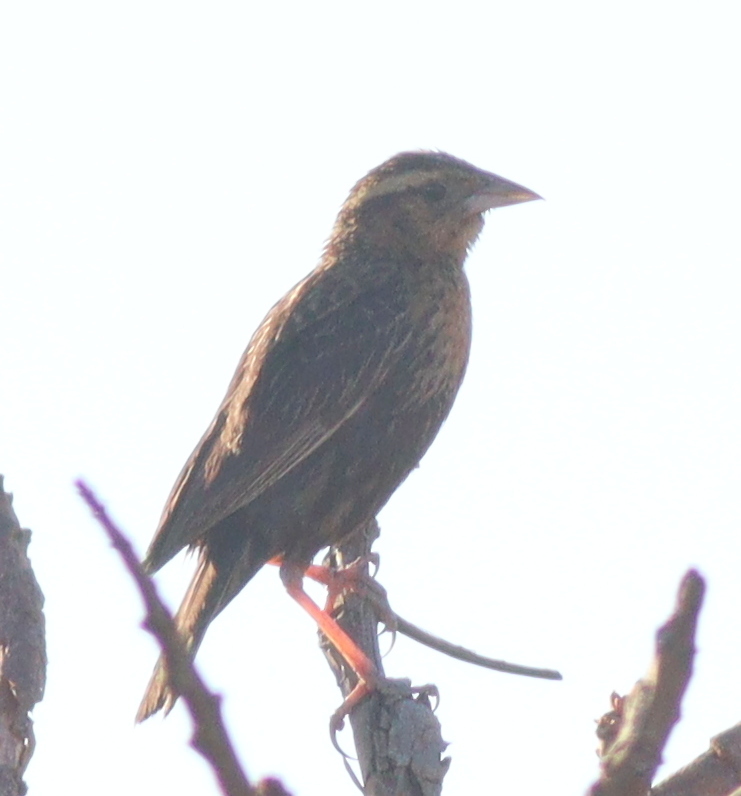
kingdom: Animalia
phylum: Chordata
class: Aves
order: Passeriformes
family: Icteridae
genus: Sturnella
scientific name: Sturnella superciliaris
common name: White-browed blackbird
